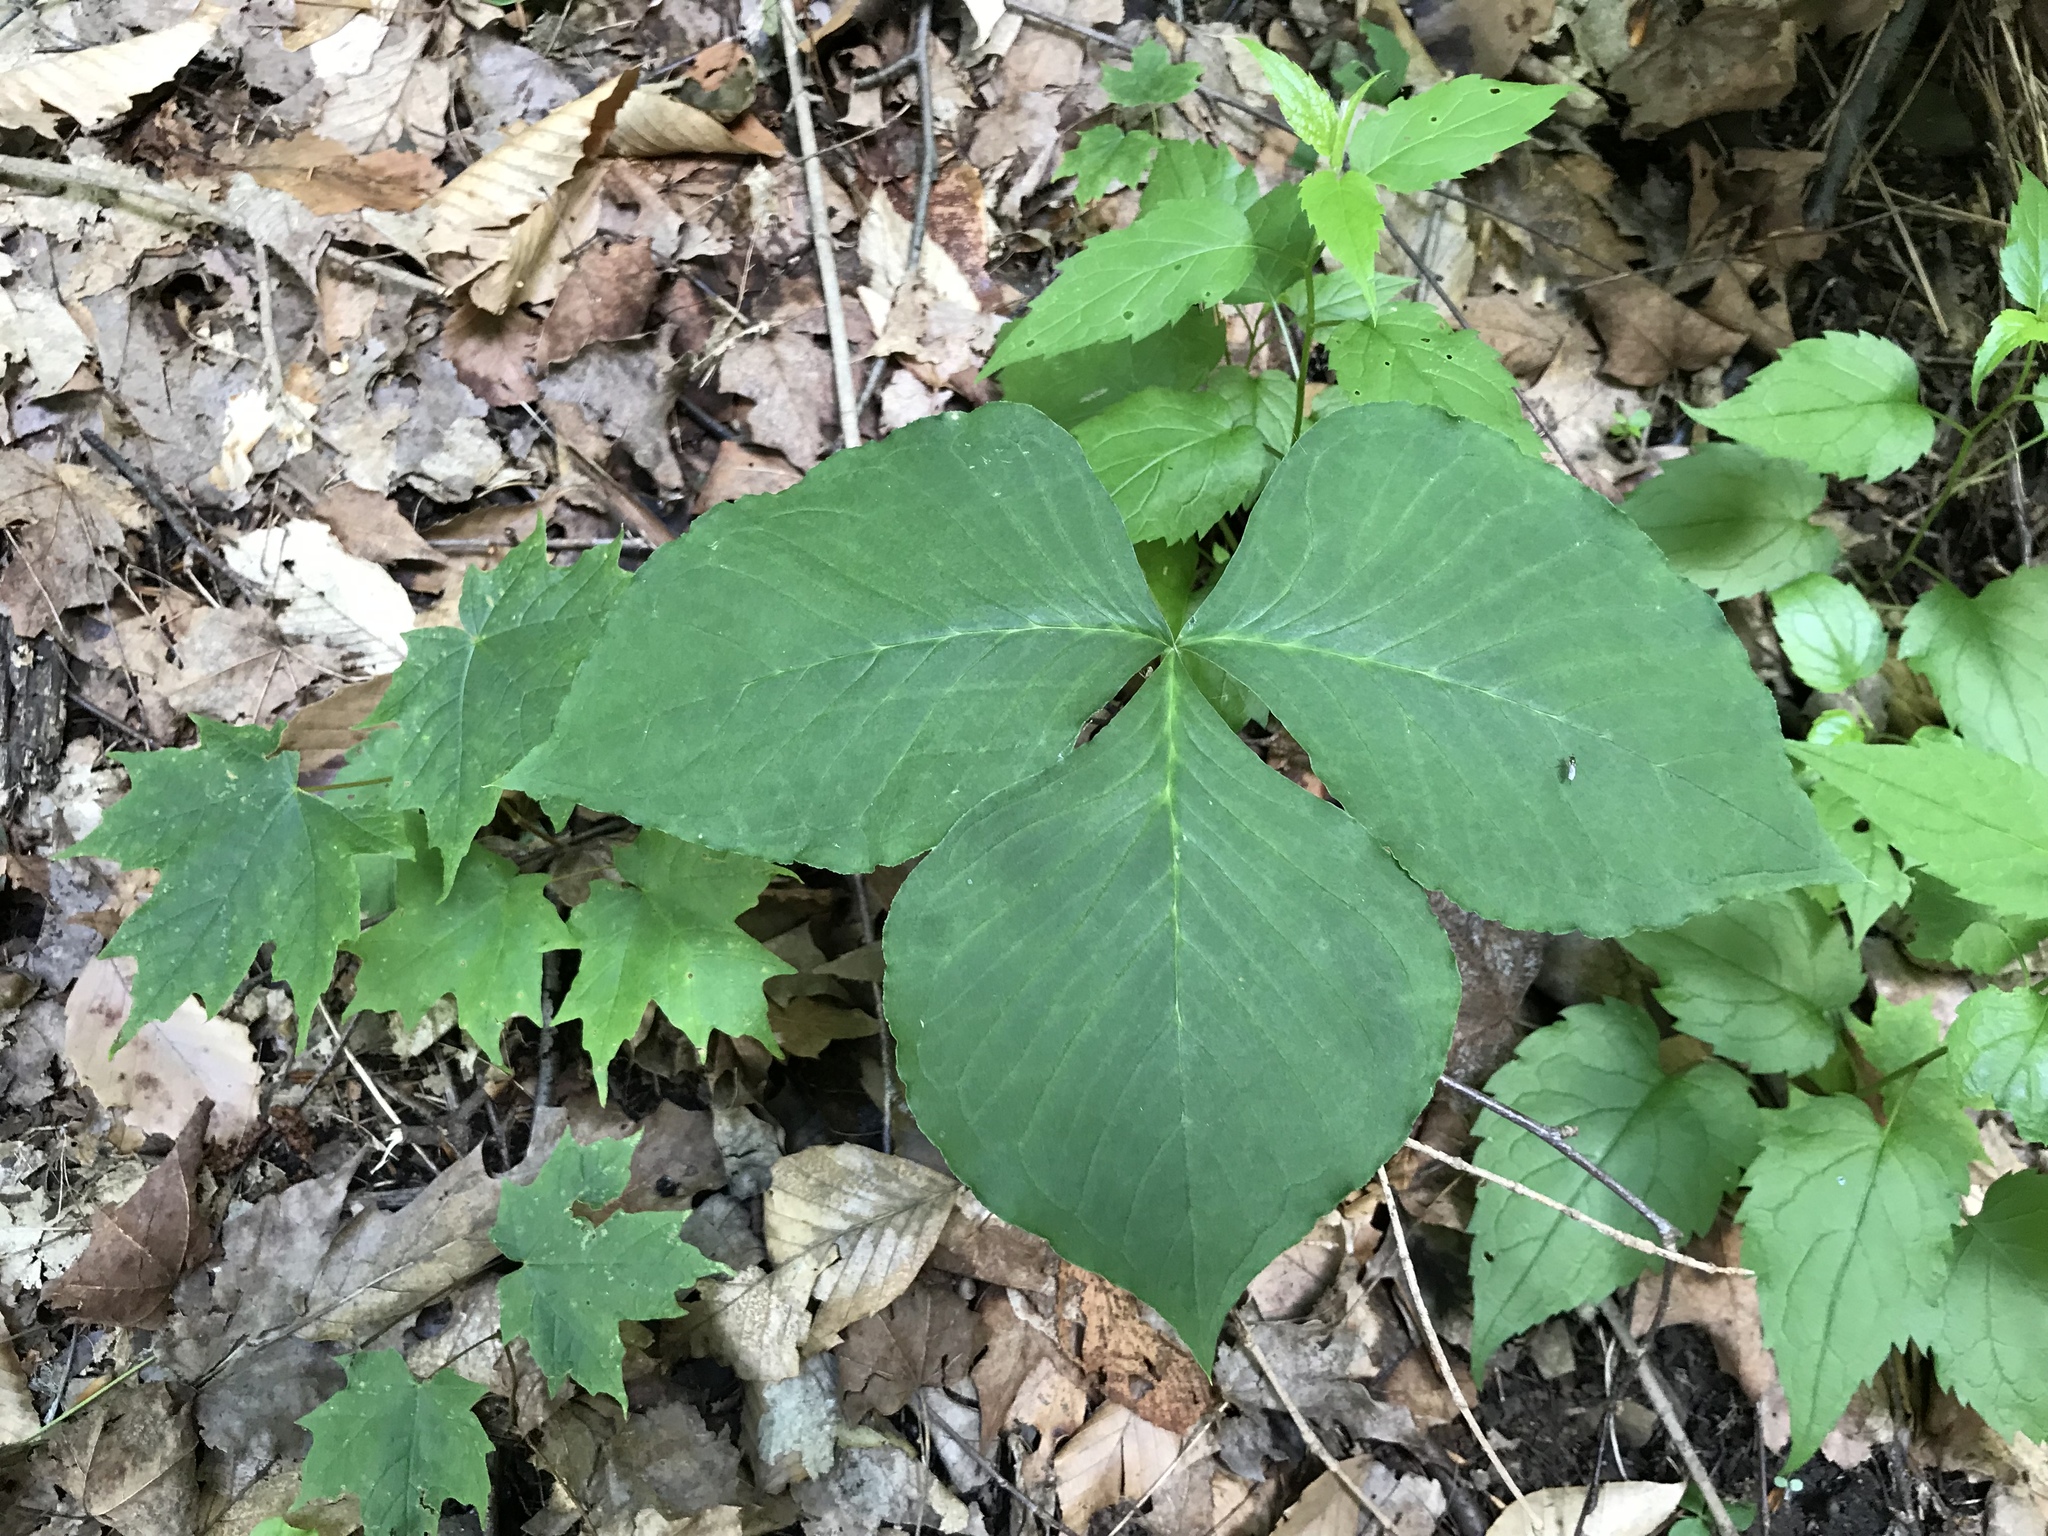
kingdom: Plantae
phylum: Tracheophyta
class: Liliopsida
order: Alismatales
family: Araceae
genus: Arisaema
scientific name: Arisaema triphyllum
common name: Jack-in-the-pulpit
